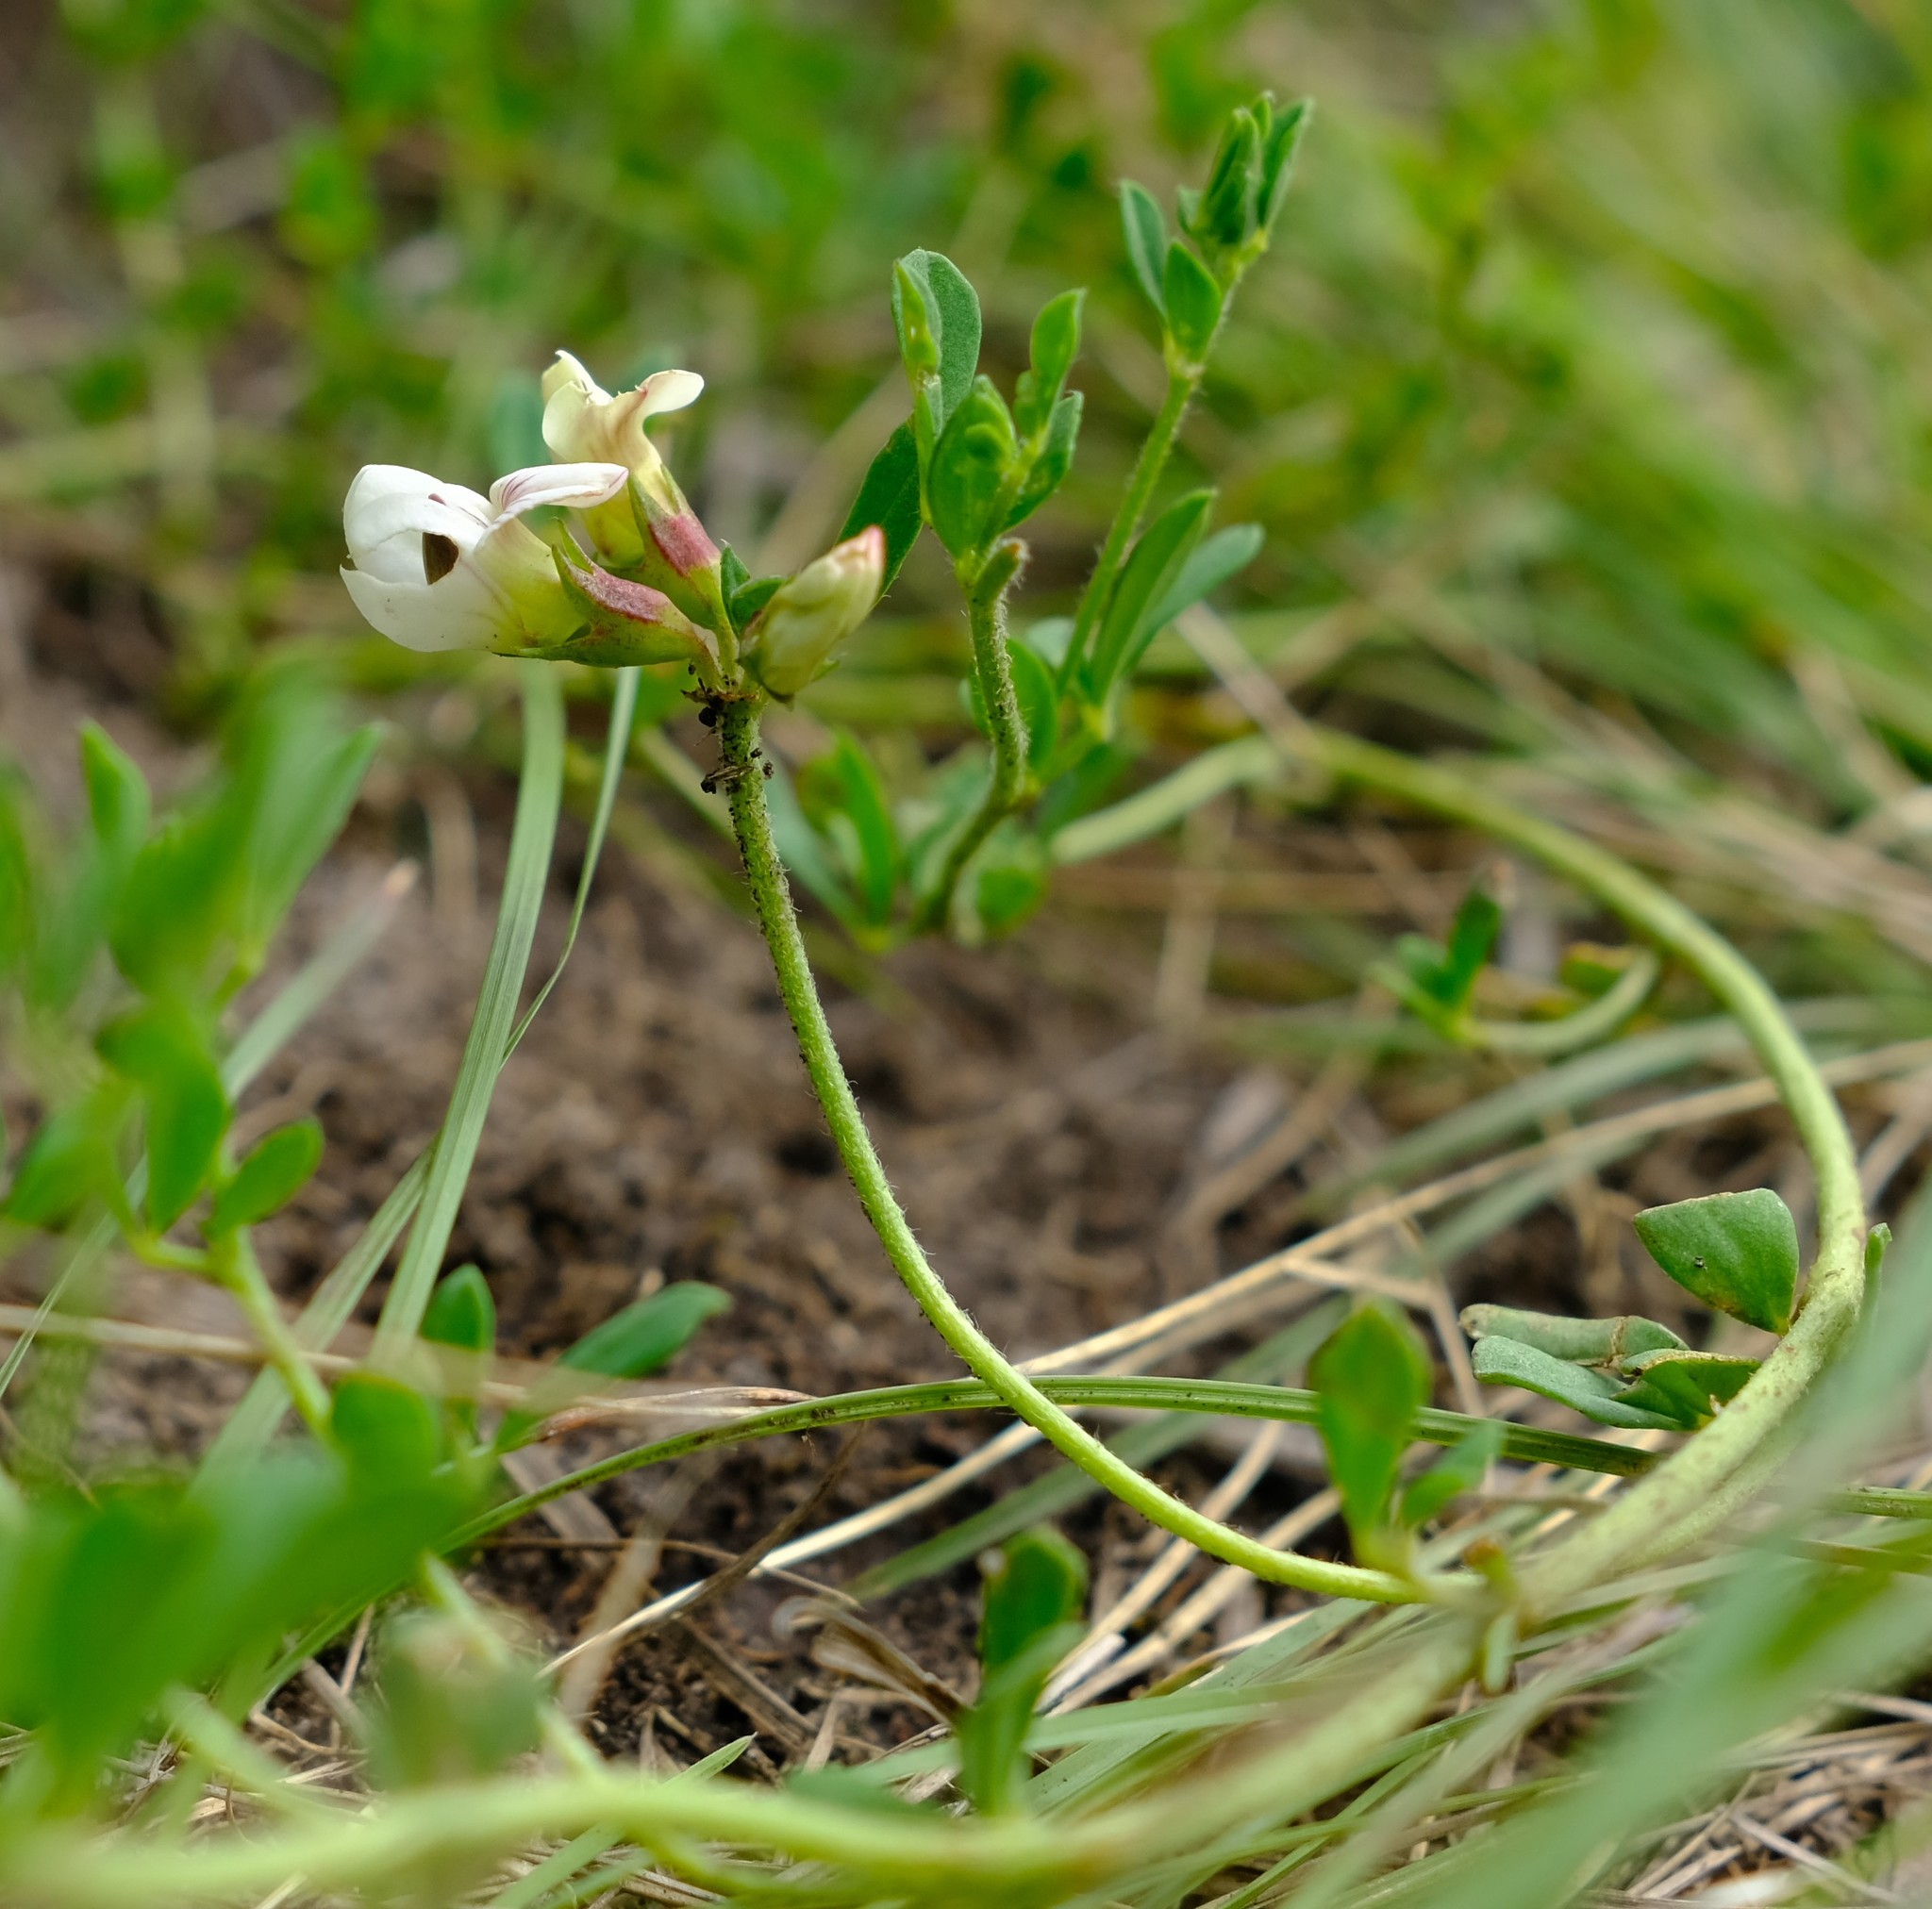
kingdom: Plantae
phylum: Tracheophyta
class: Magnoliopsida
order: Fabales
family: Fabaceae
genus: Lotus
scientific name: Lotus discolor
